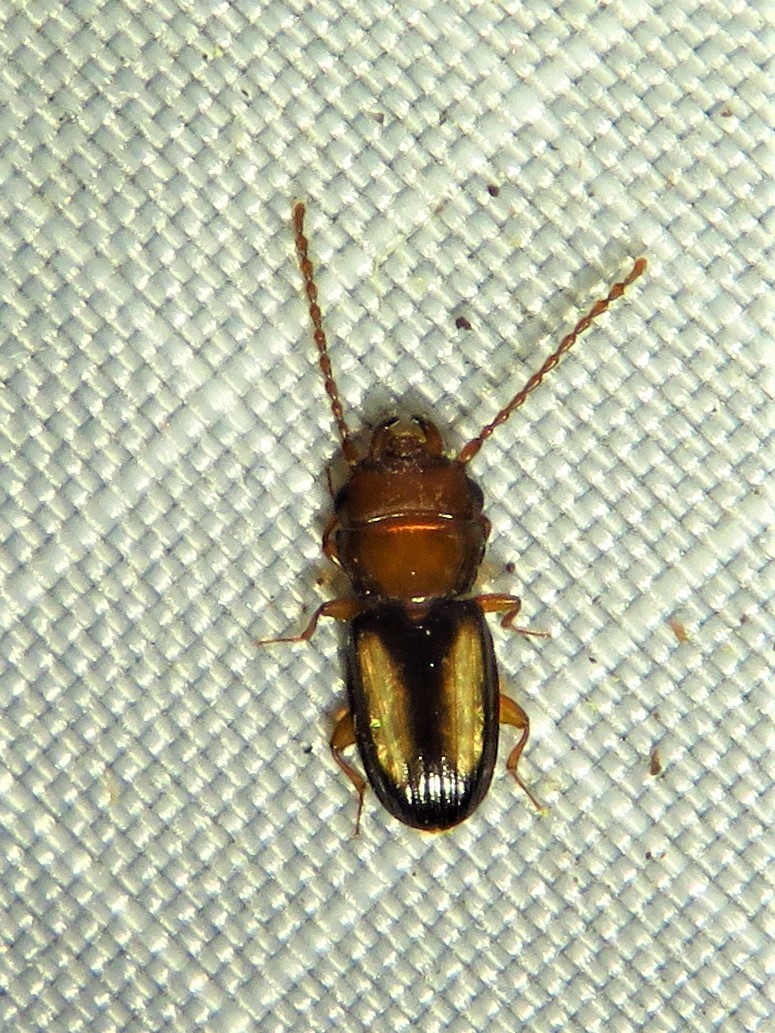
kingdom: Animalia
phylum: Arthropoda
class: Insecta
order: Coleoptera
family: Laemophloeidae
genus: Laemophloeus
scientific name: Laemophloeus terminalis
